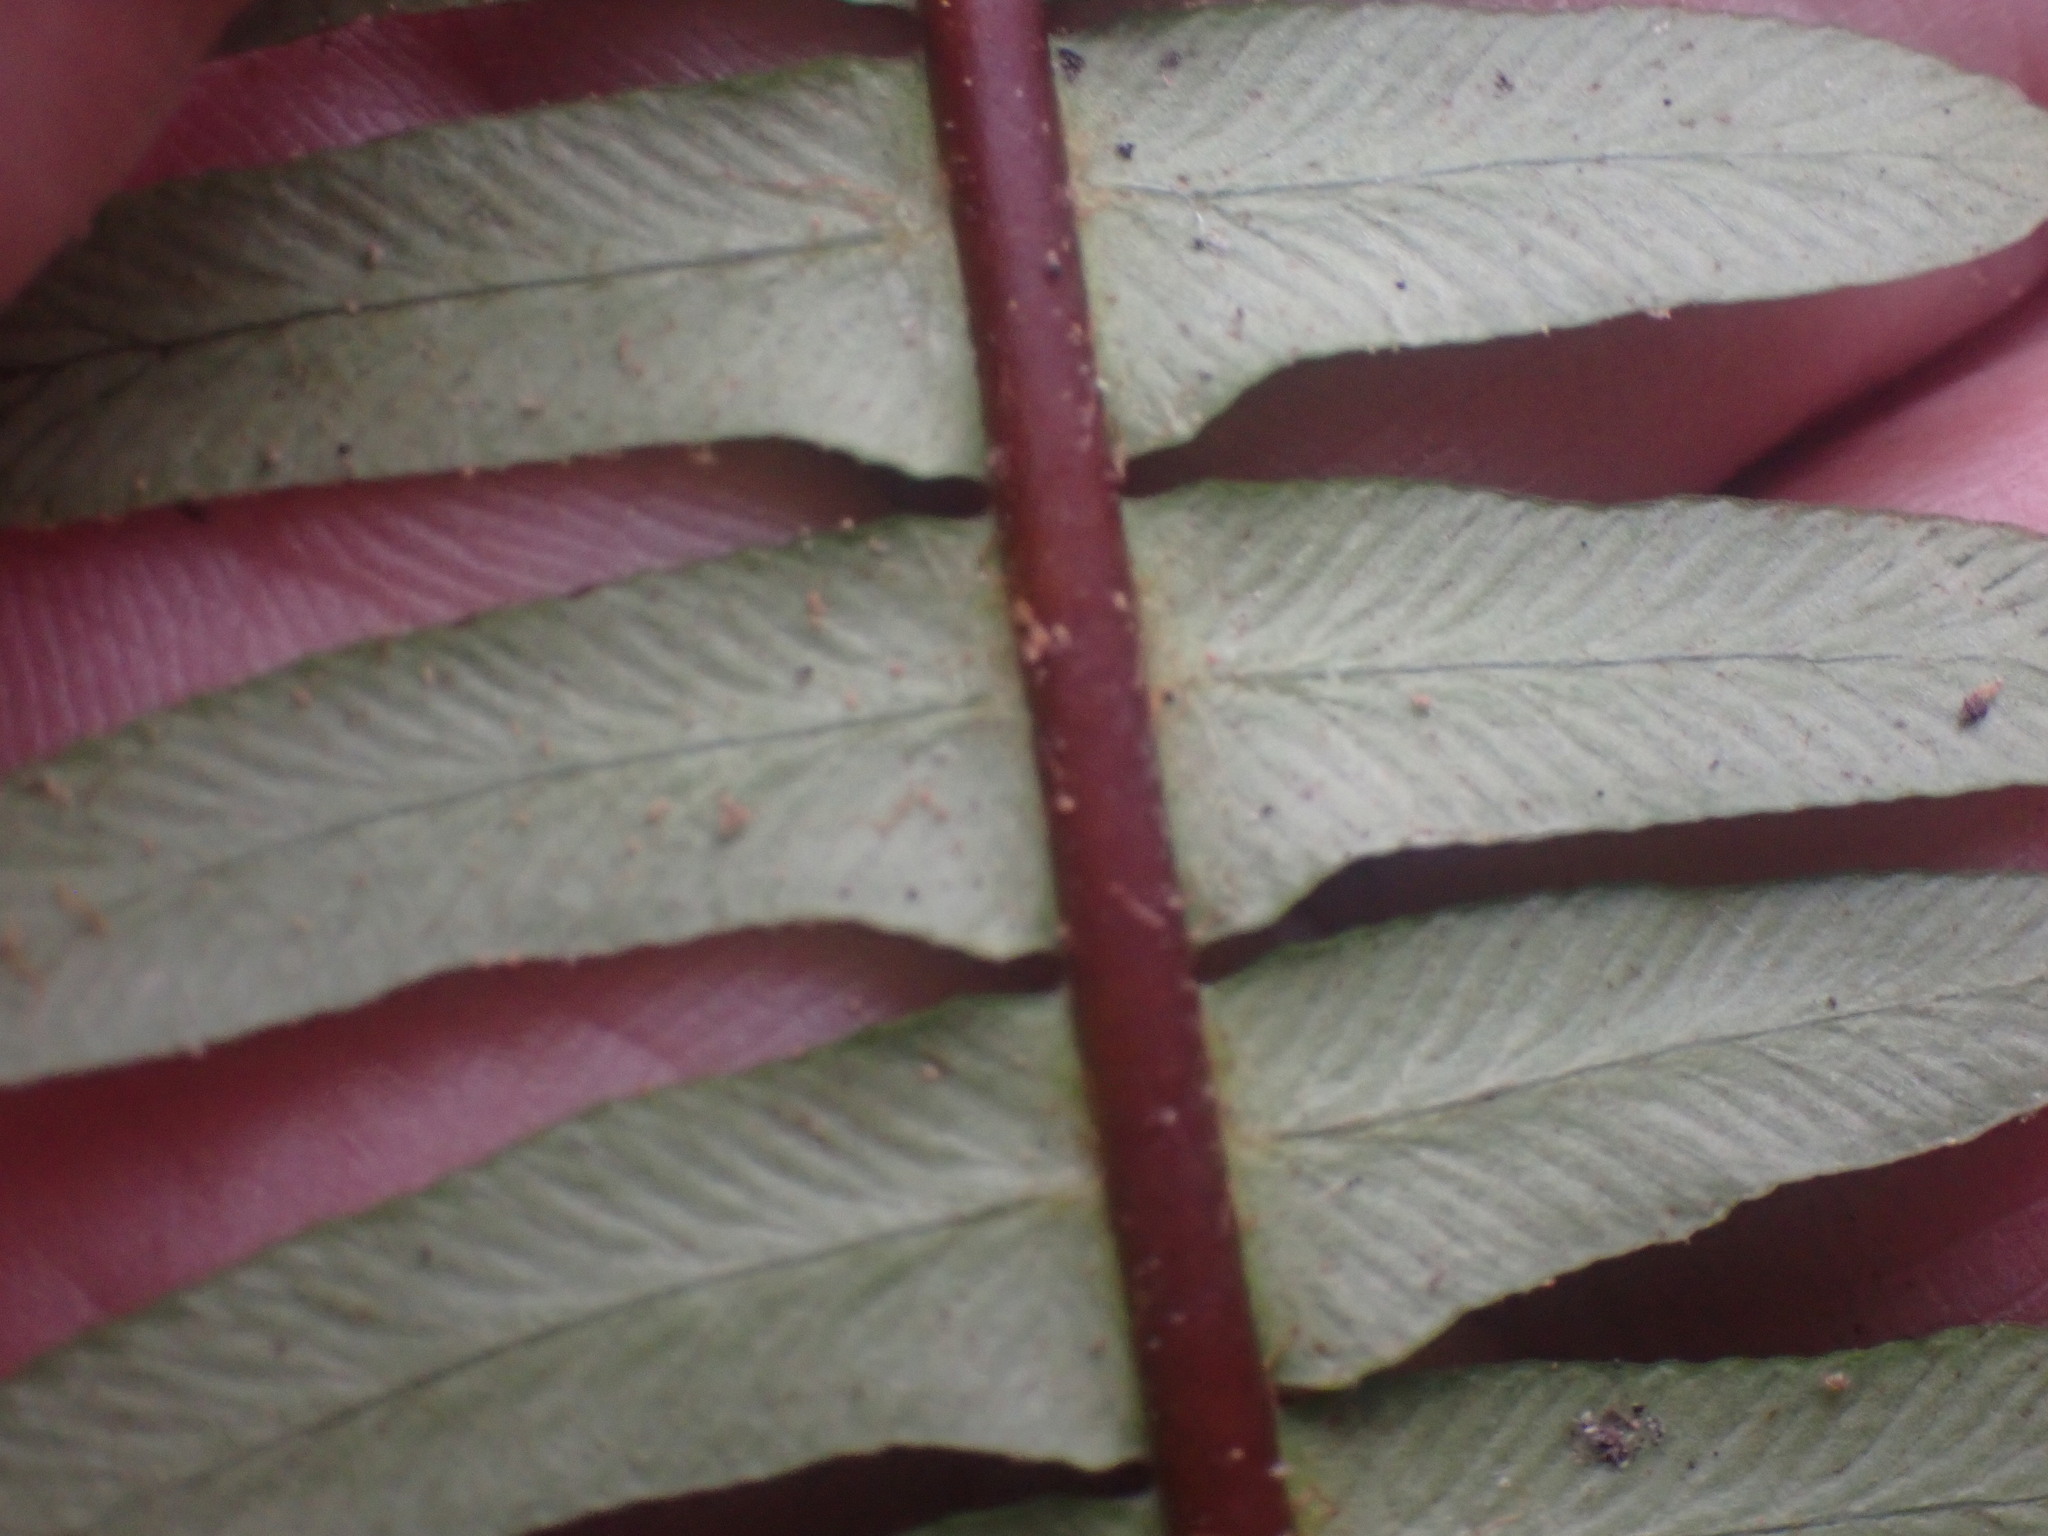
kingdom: Plantae
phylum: Tracheophyta
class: Polypodiopsida
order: Polypodiales
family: Blechnaceae
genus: Struthiopteris
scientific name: Struthiopteris spicant
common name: Deer fern
